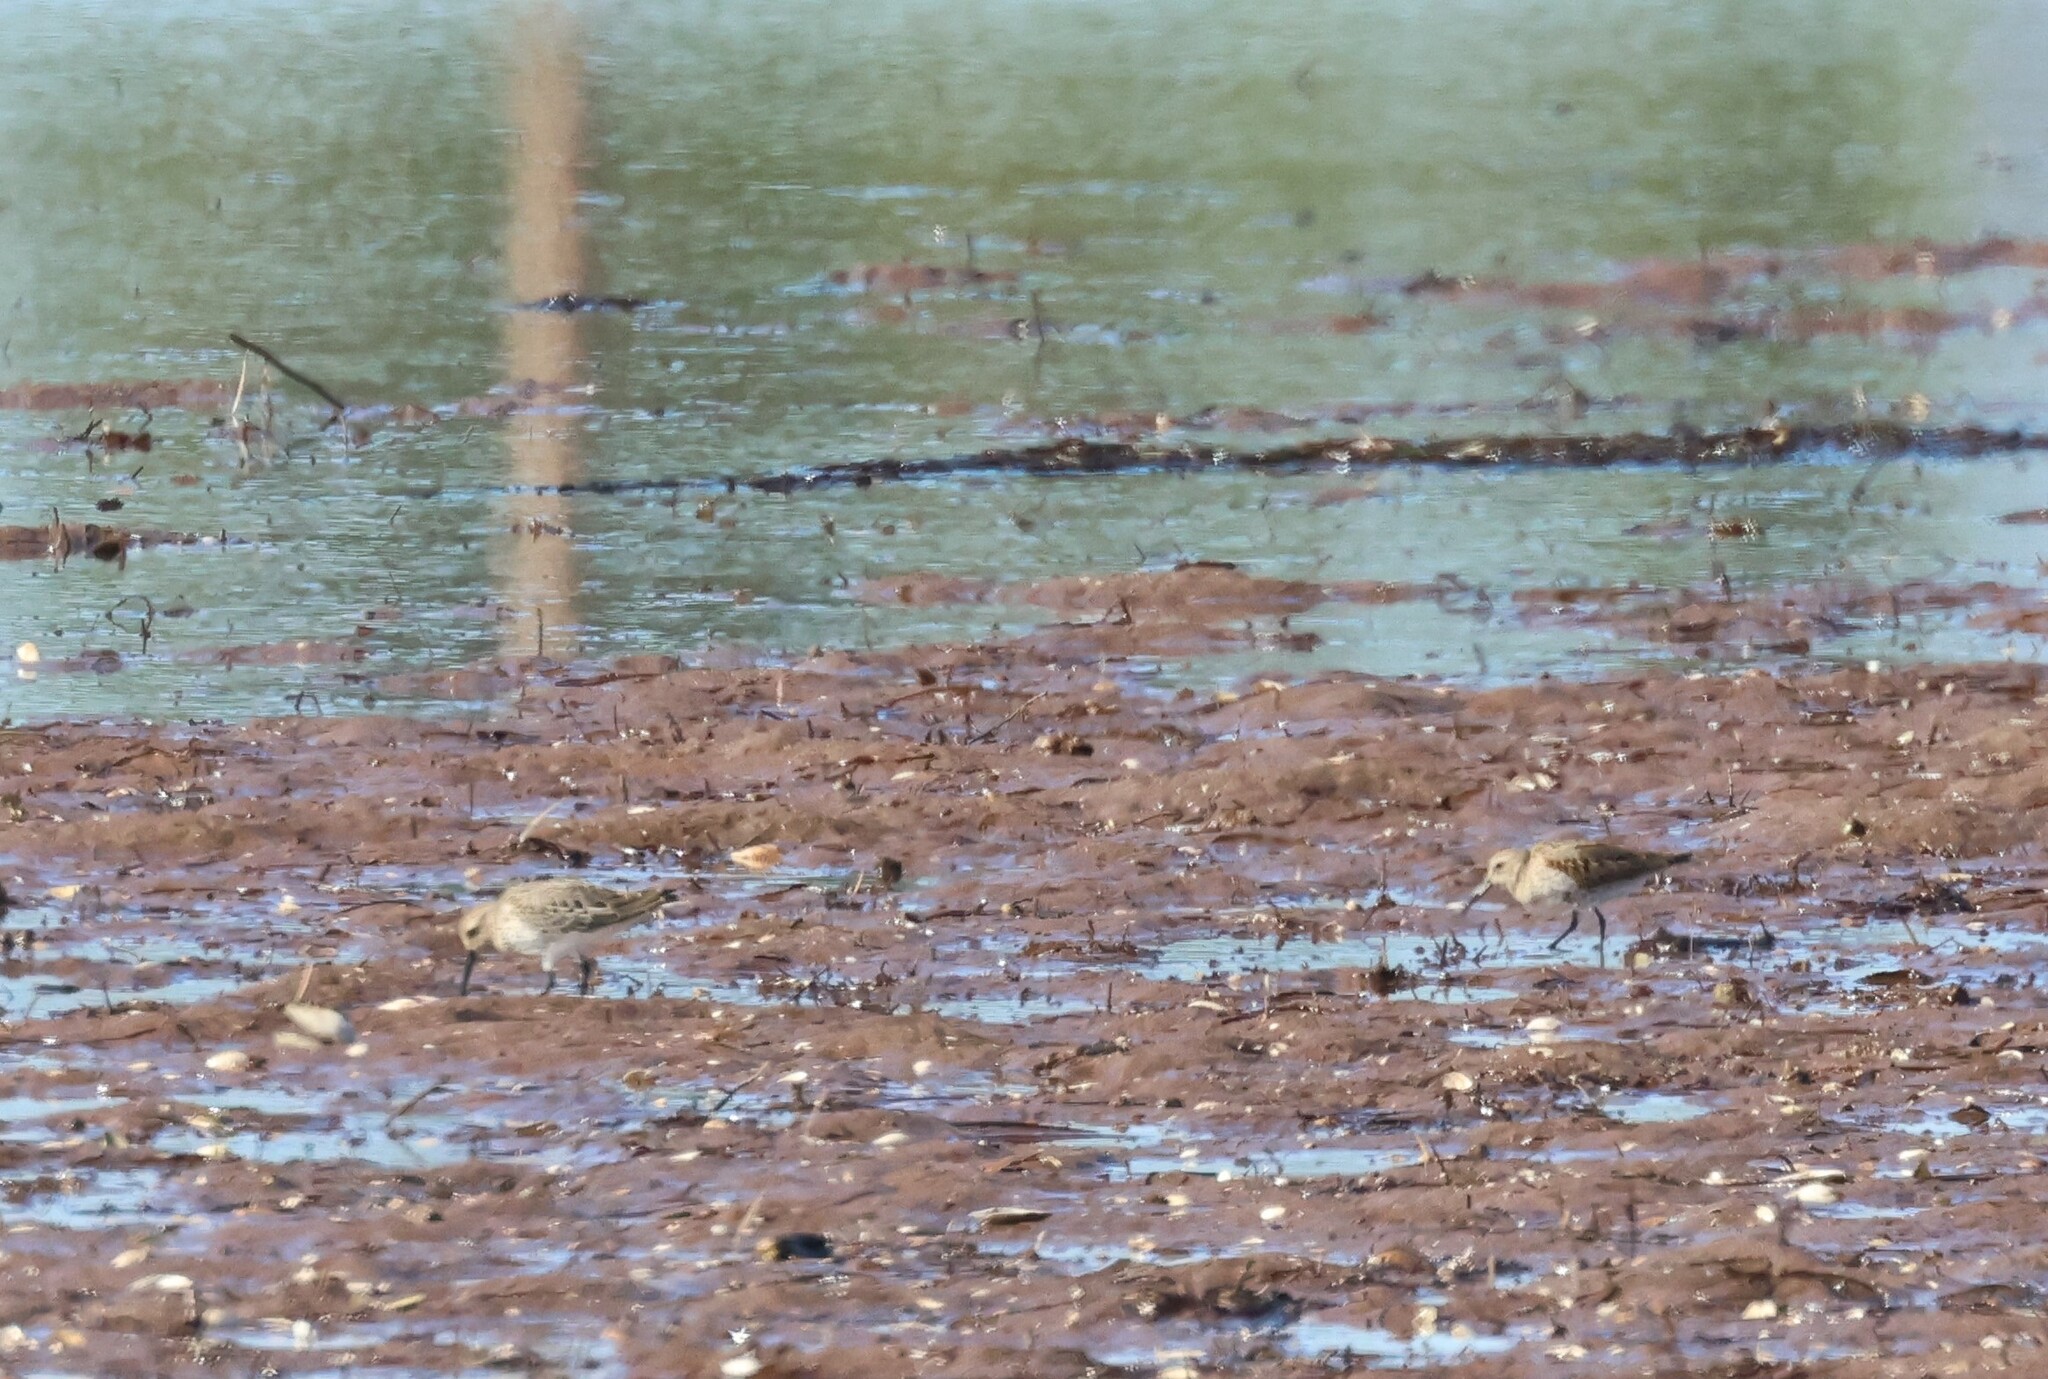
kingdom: Animalia
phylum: Chordata
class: Aves
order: Charadriiformes
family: Scolopacidae
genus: Calidris
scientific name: Calidris alpina
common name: Dunlin
